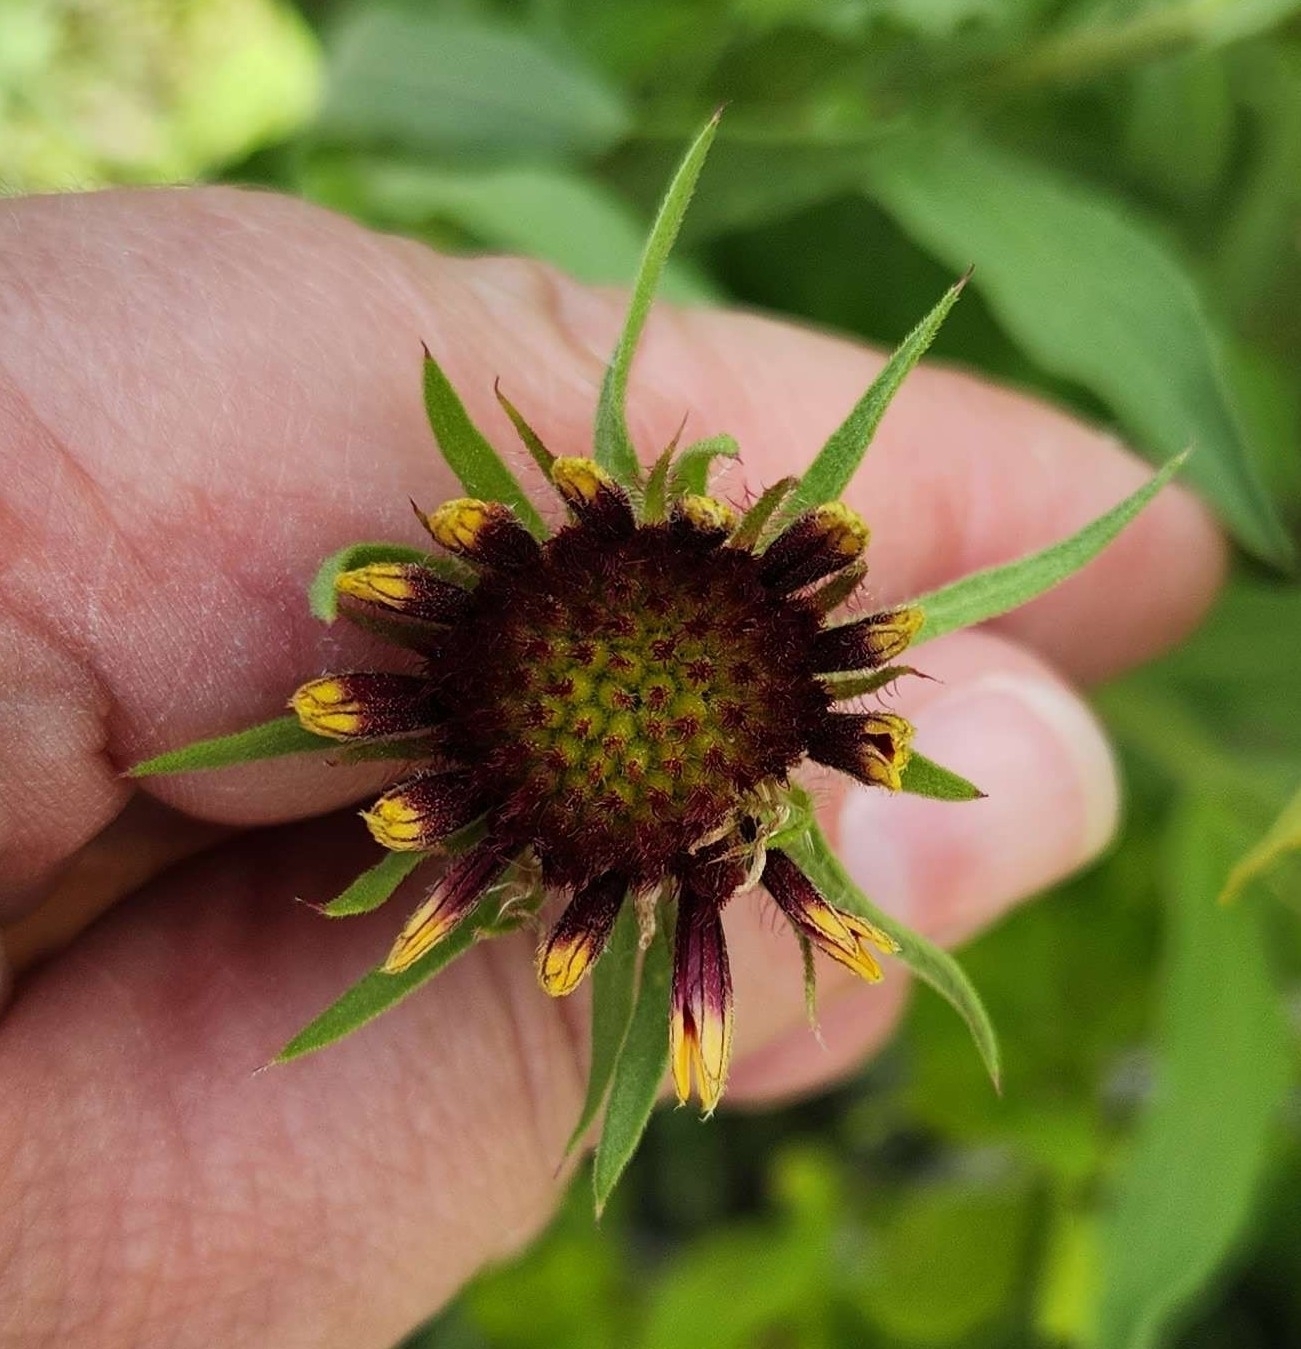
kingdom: Plantae
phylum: Tracheophyta
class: Magnoliopsida
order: Asterales
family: Asteraceae
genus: Gaillardia
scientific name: Gaillardia pulchella
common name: Firewheel
